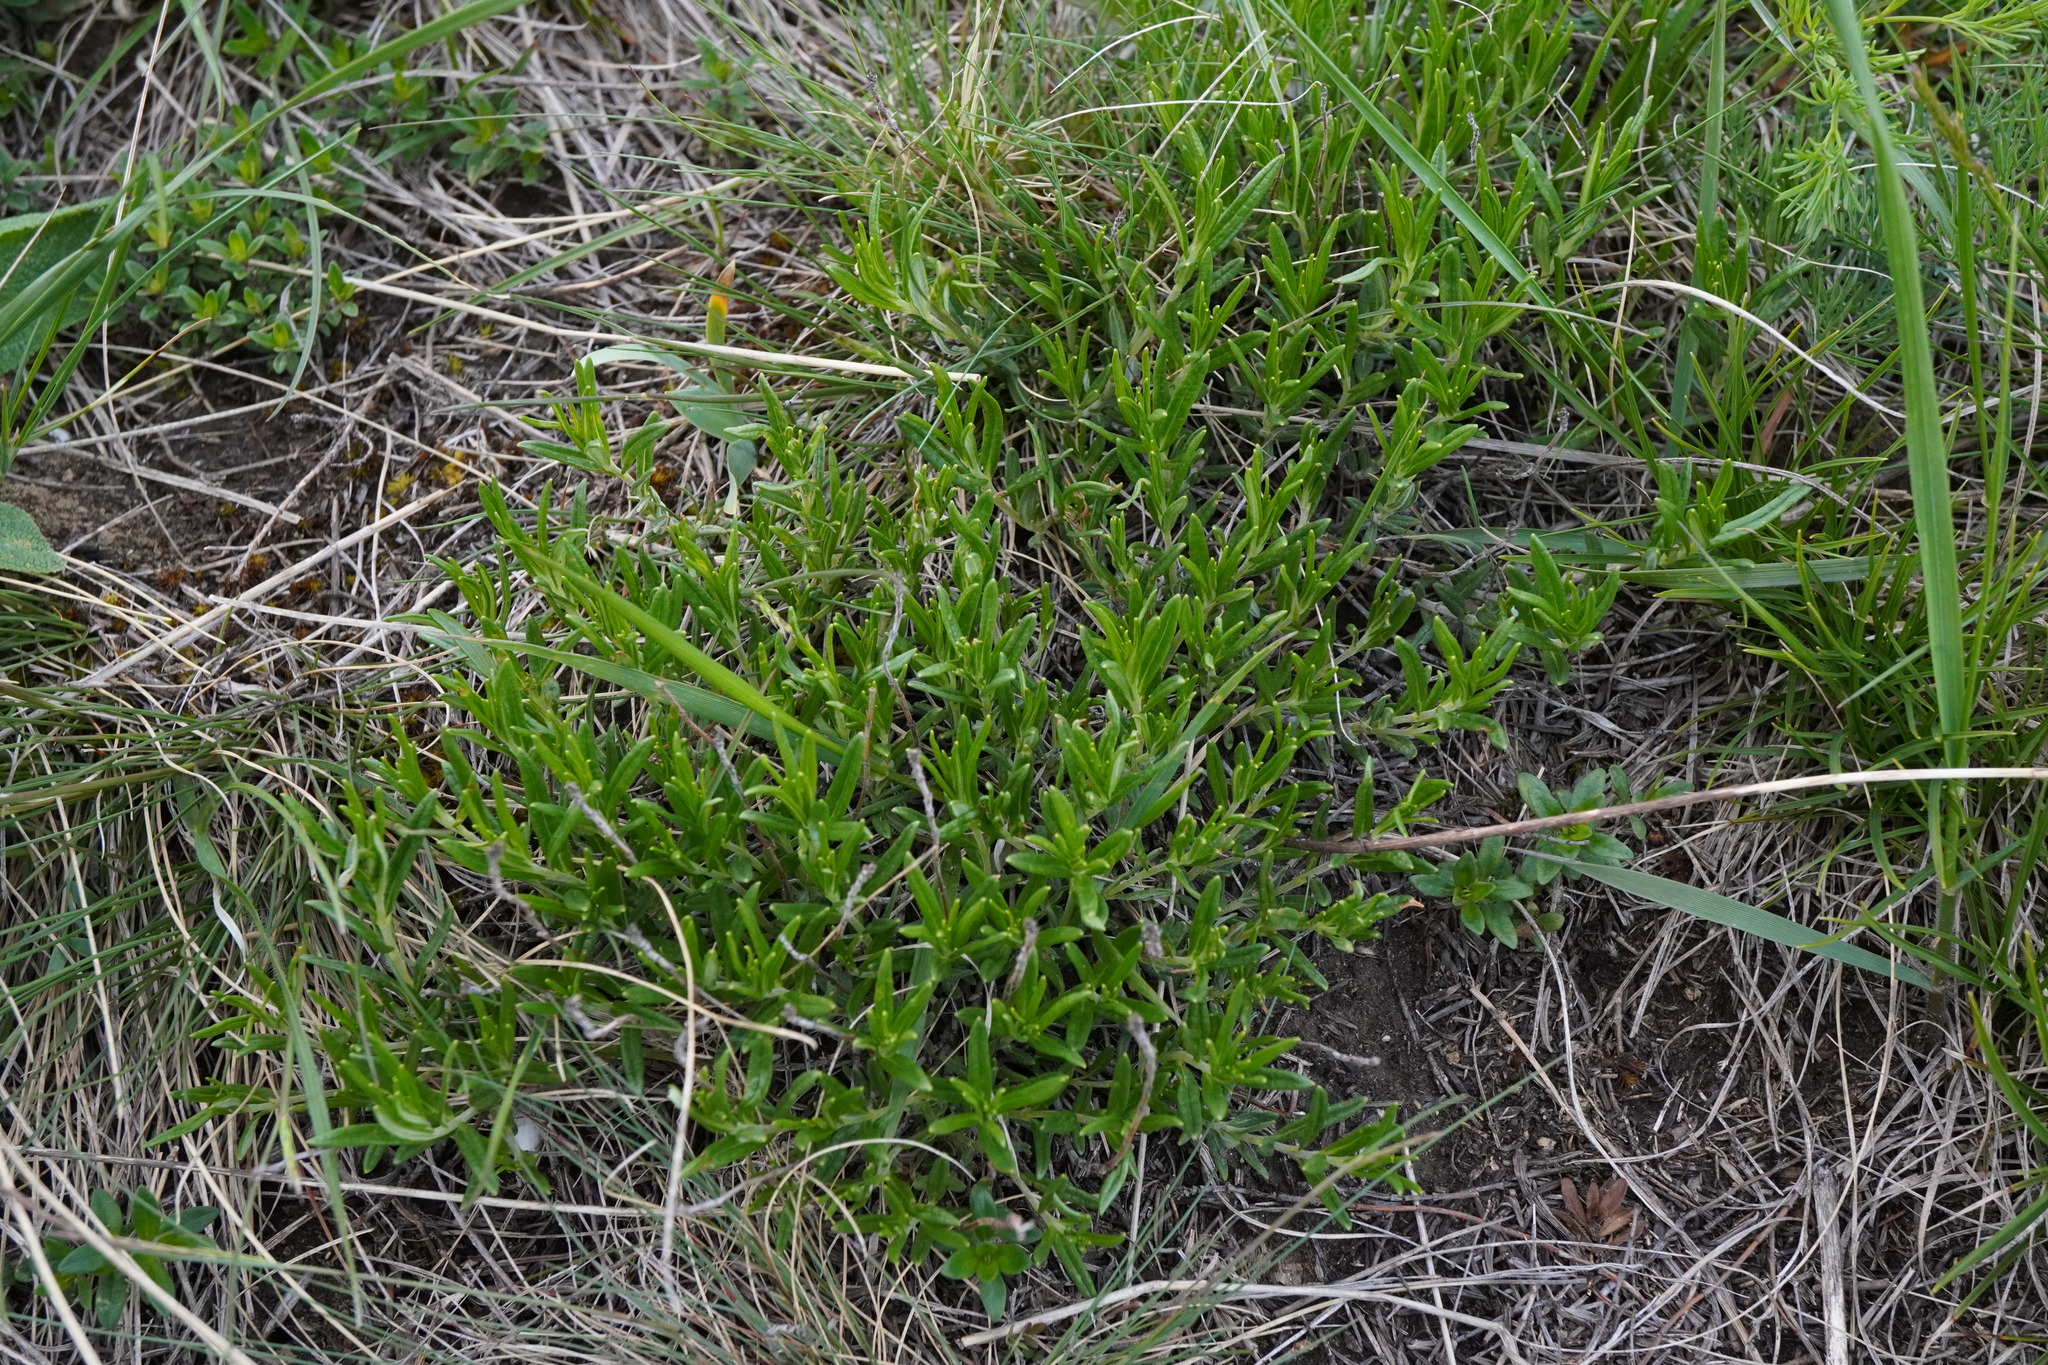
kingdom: Plantae
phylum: Tracheophyta
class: Magnoliopsida
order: Lamiales
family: Lamiaceae
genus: Teucrium
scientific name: Teucrium montanum
